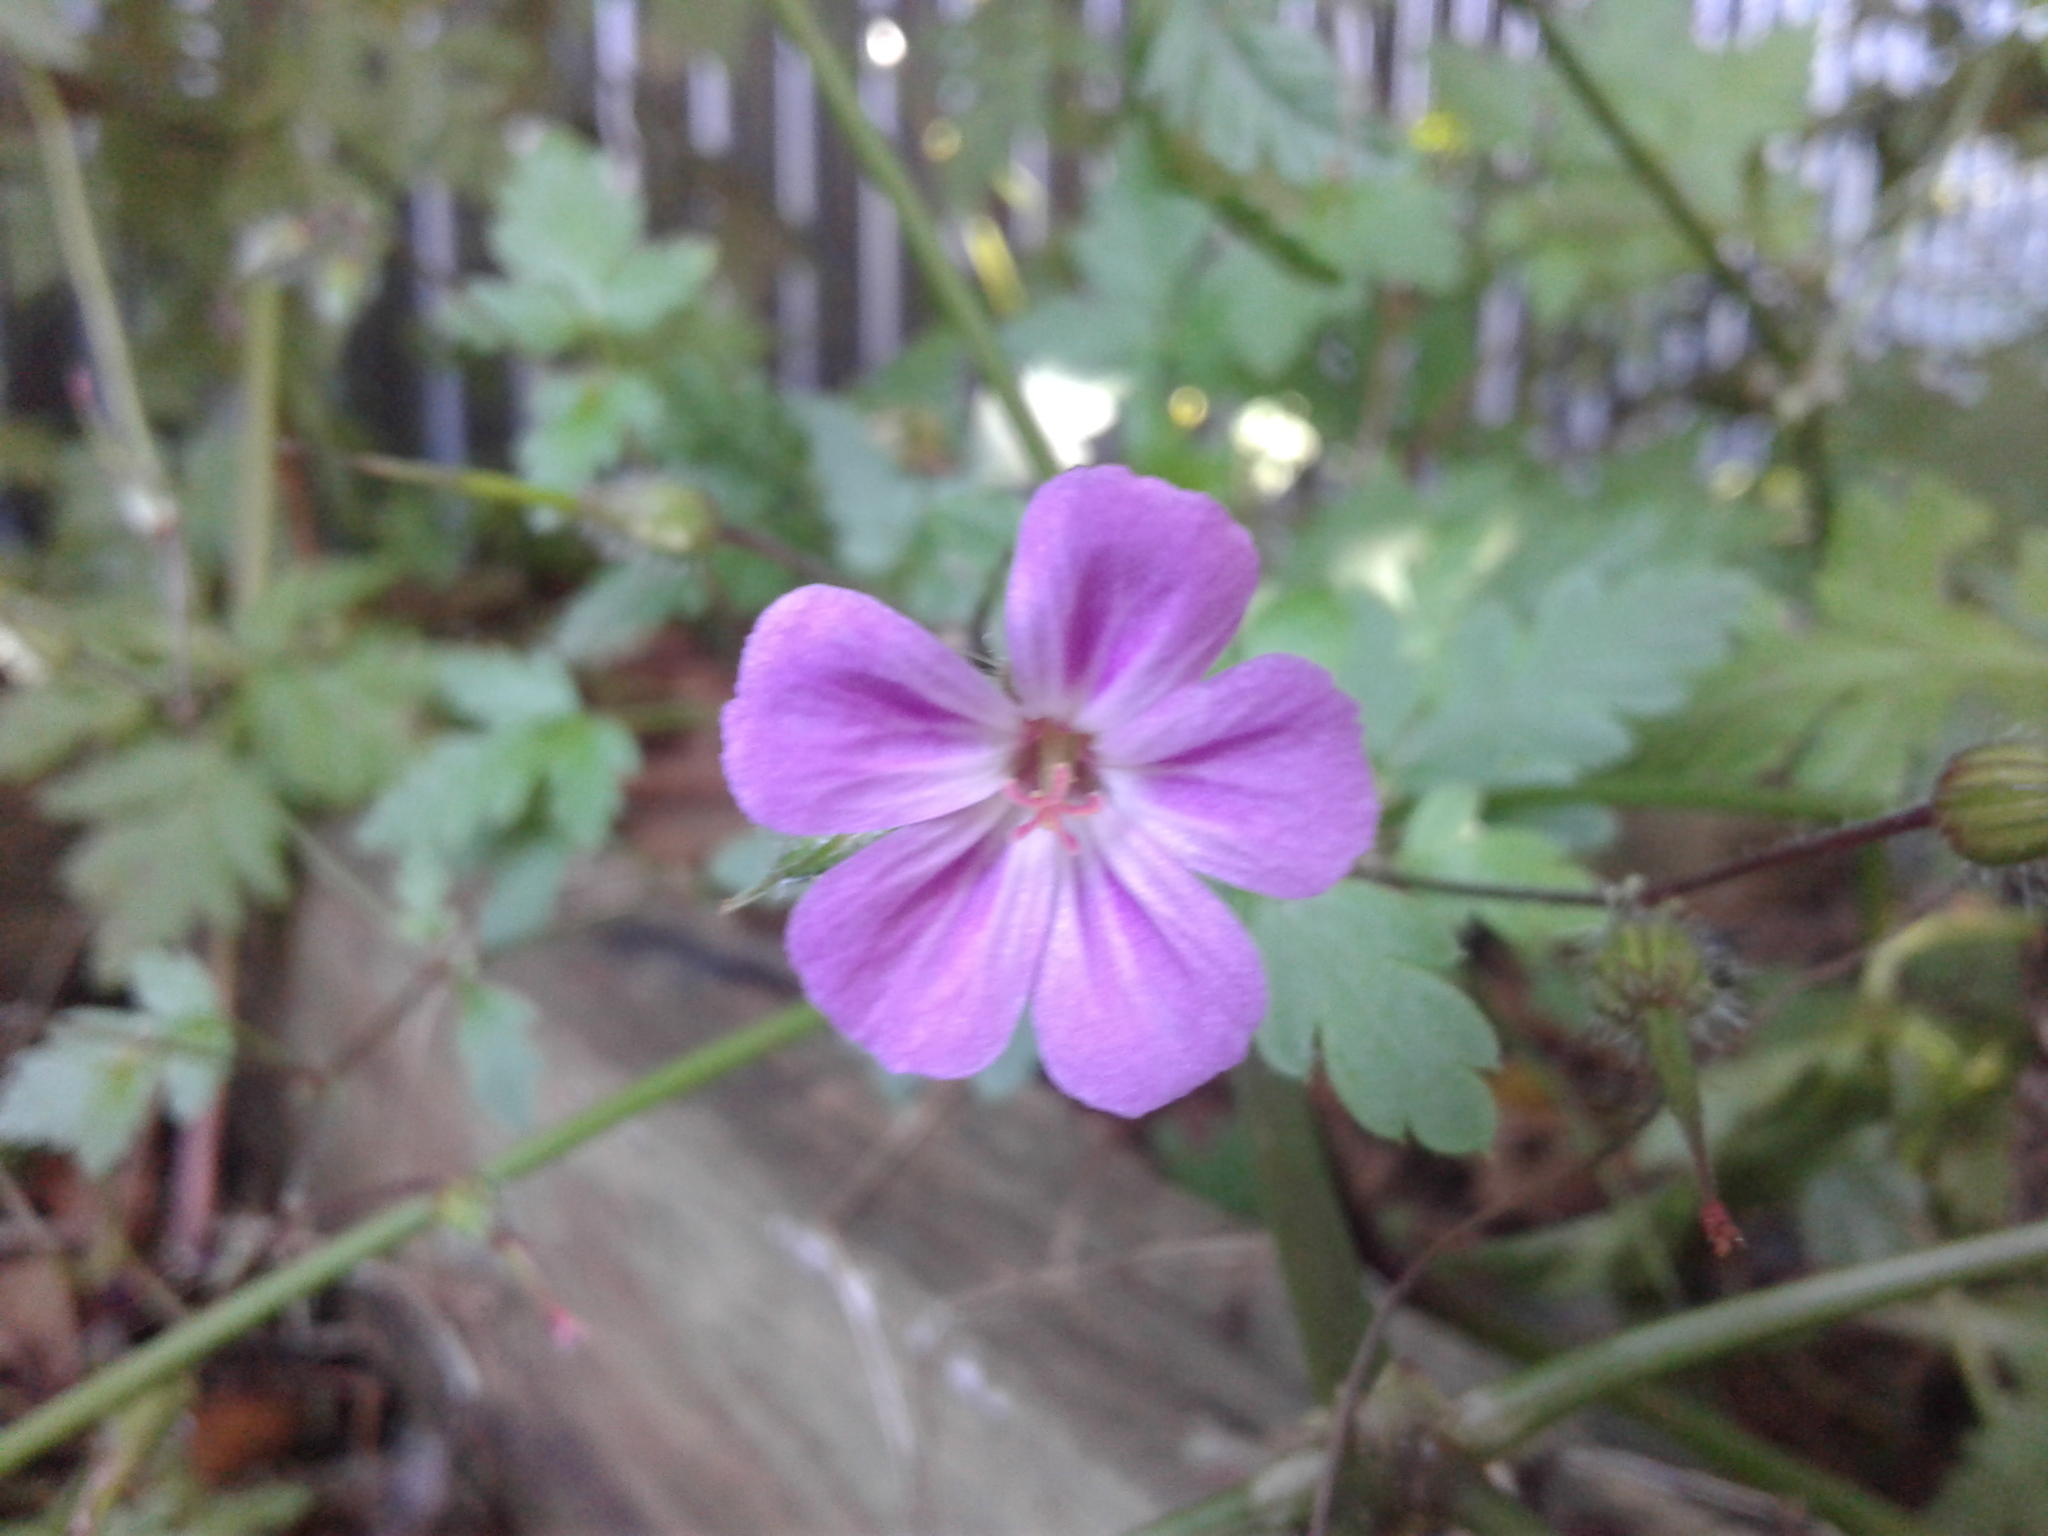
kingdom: Plantae
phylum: Tracheophyta
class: Magnoliopsida
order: Geraniales
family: Geraniaceae
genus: Geranium
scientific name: Geranium robertianum
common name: Herb-robert
